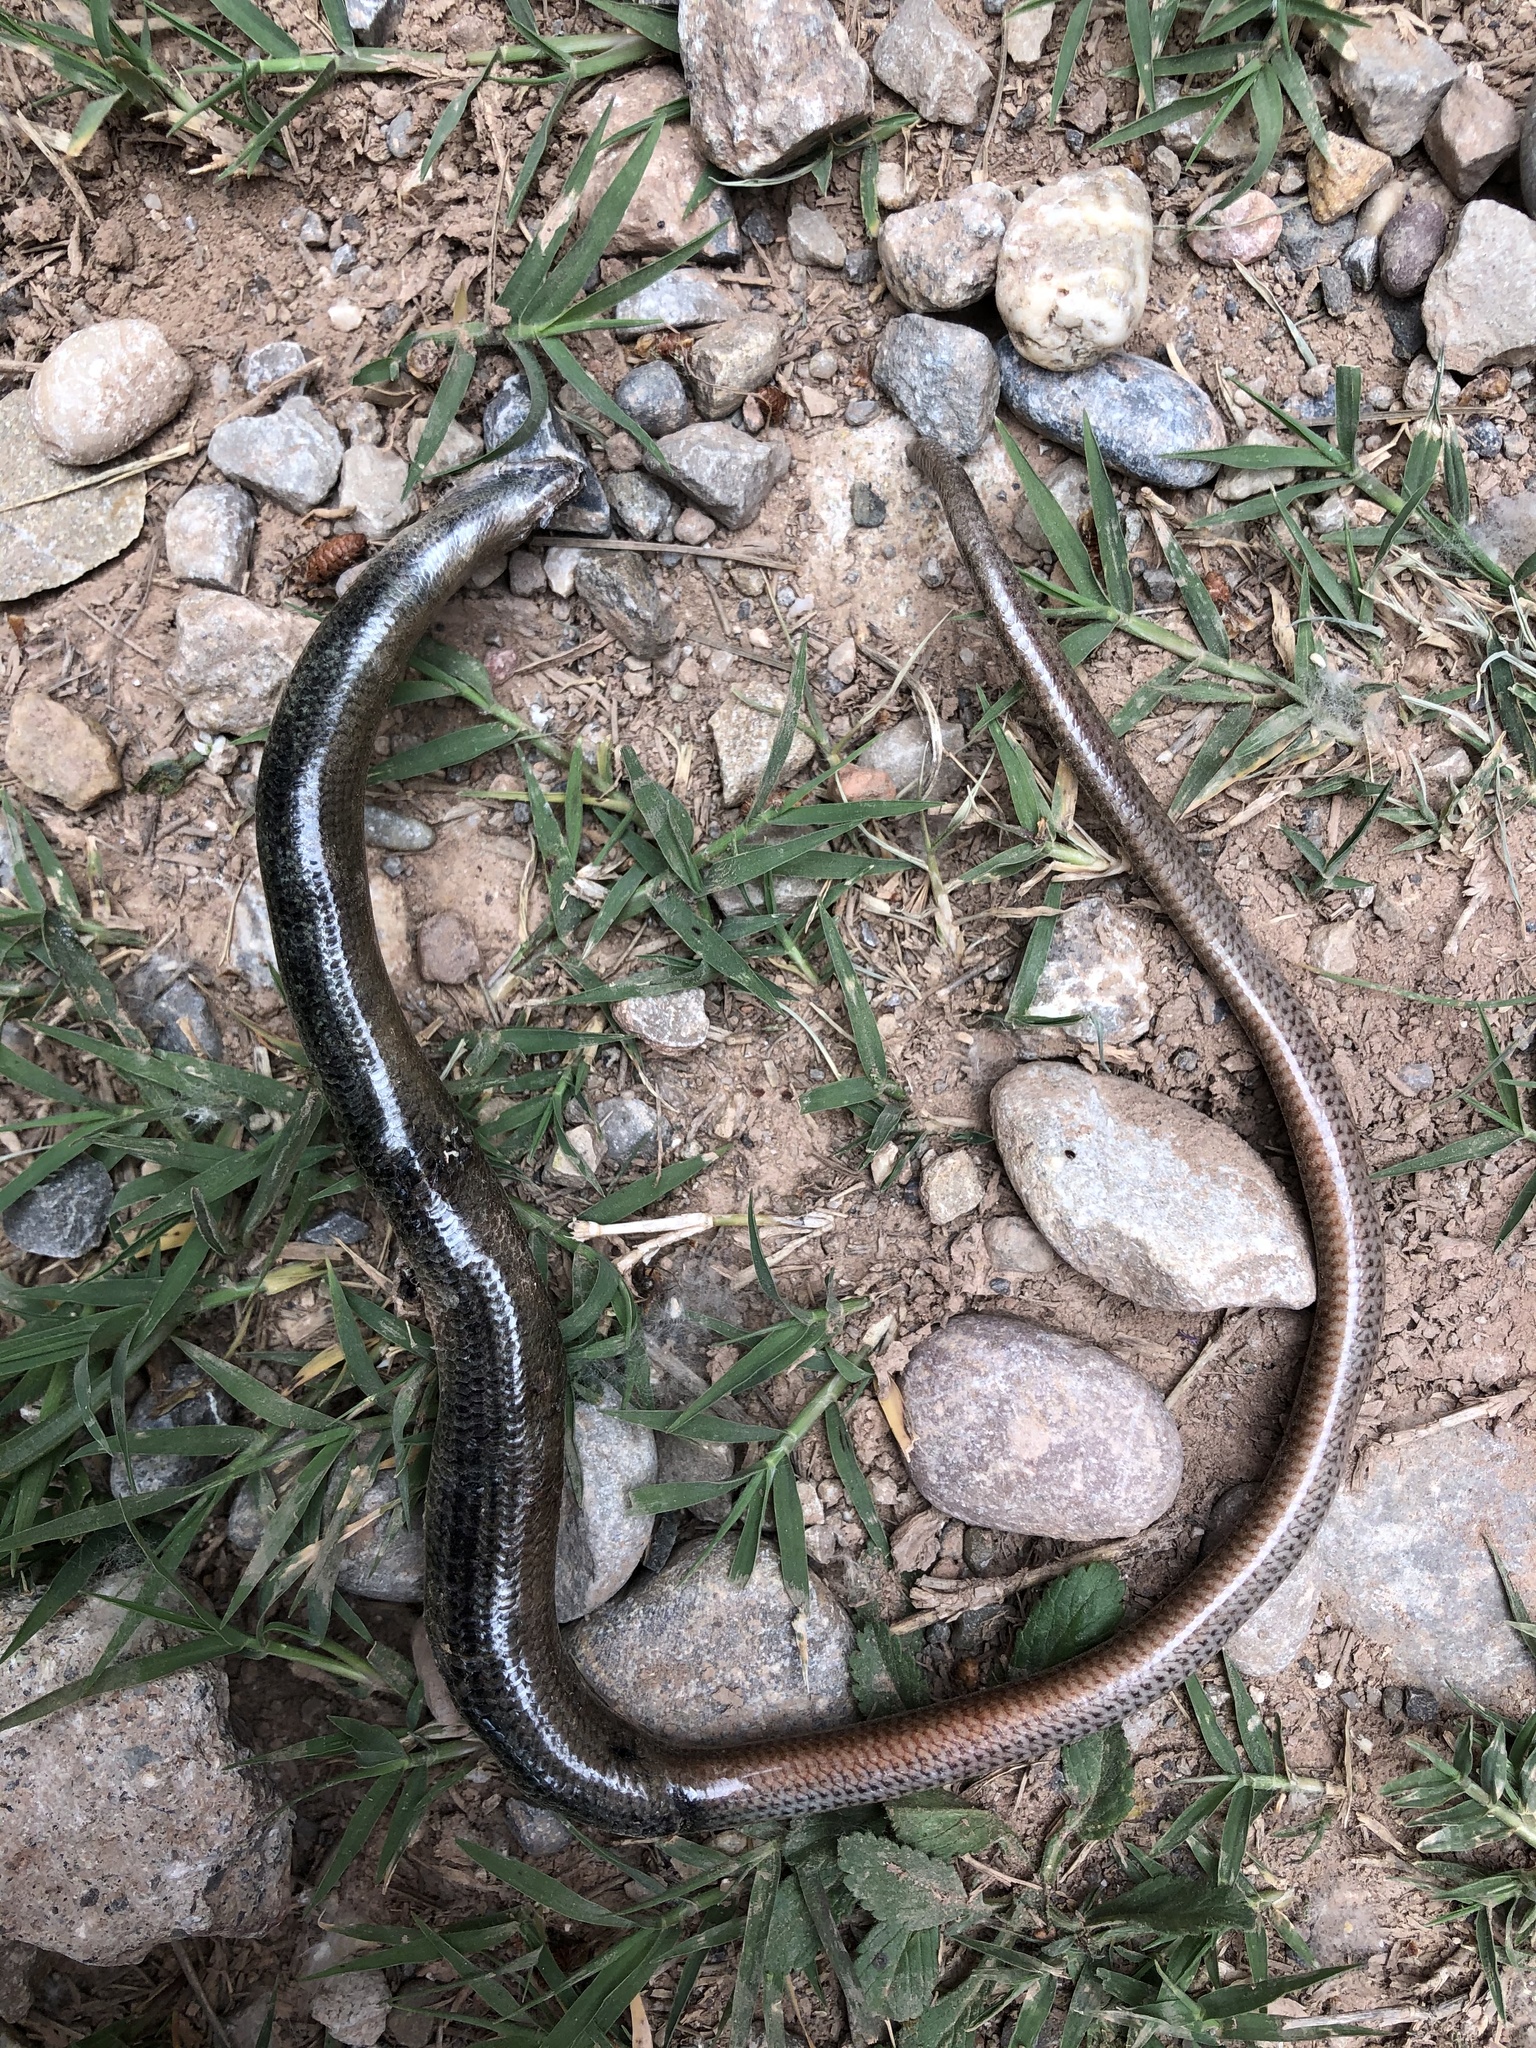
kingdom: Animalia
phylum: Chordata
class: Squamata
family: Anguidae
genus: Anguis
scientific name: Anguis fragilis
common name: Slow worm
